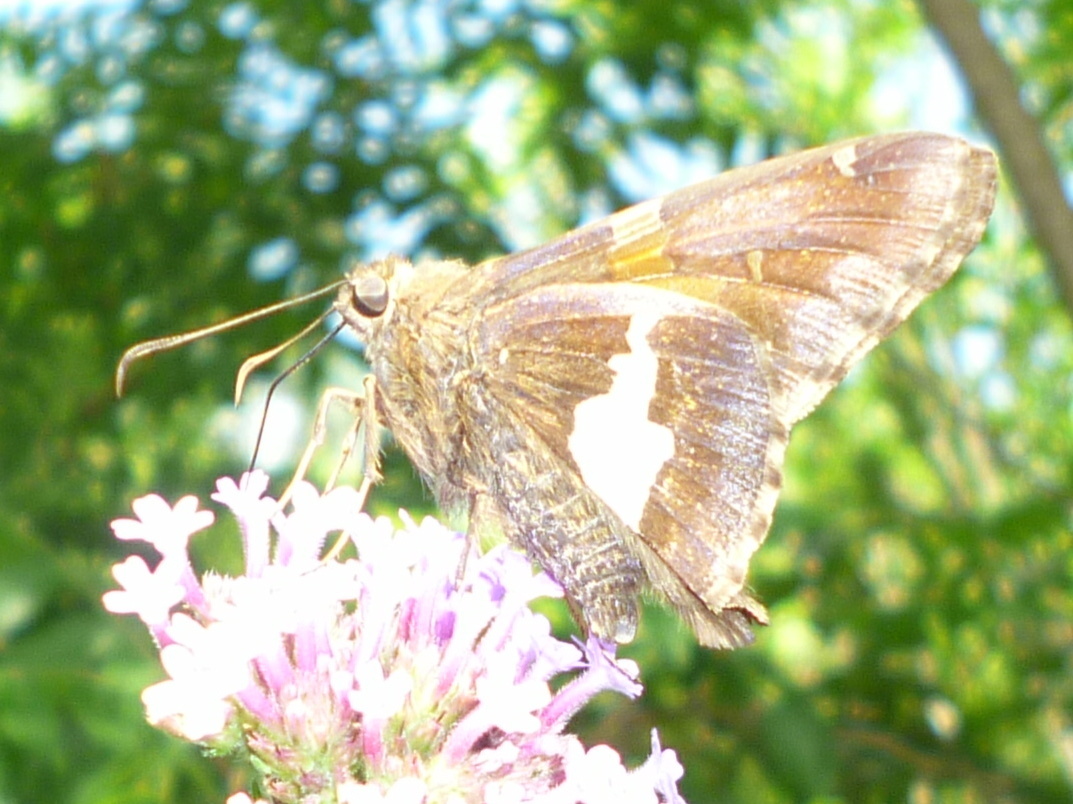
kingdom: Animalia
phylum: Arthropoda
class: Insecta
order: Lepidoptera
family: Hesperiidae
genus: Epargyreus
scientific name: Epargyreus clarus
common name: Silver-spotted skipper
